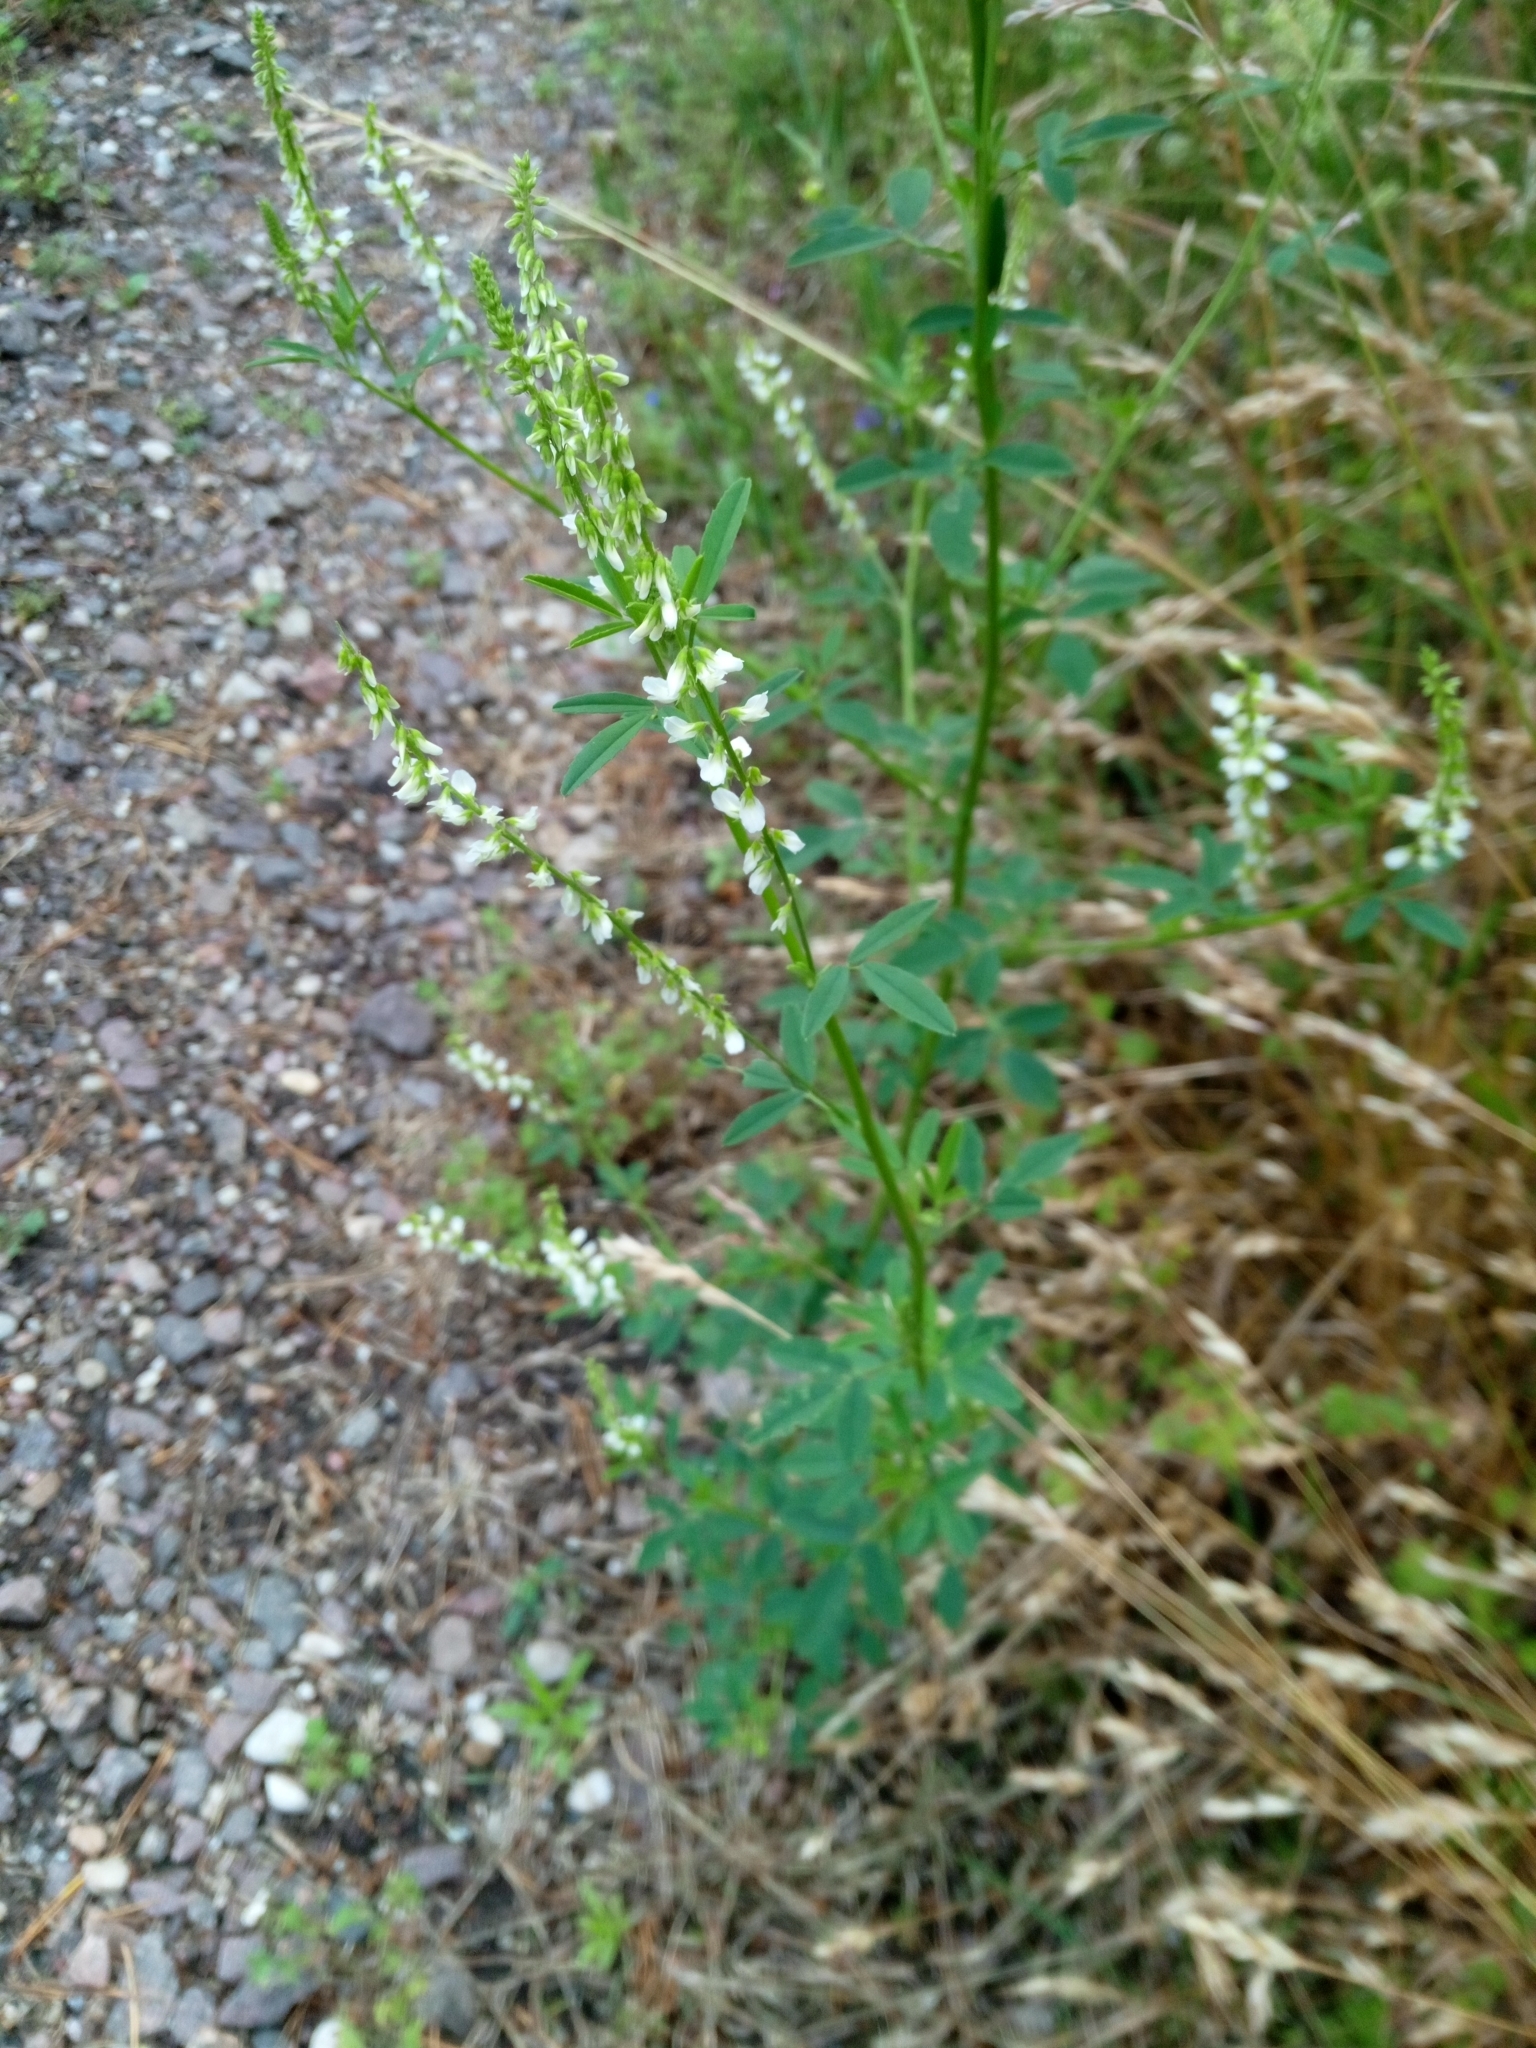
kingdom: Plantae
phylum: Tracheophyta
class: Magnoliopsida
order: Fabales
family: Fabaceae
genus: Melilotus
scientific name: Melilotus albus
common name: White melilot
